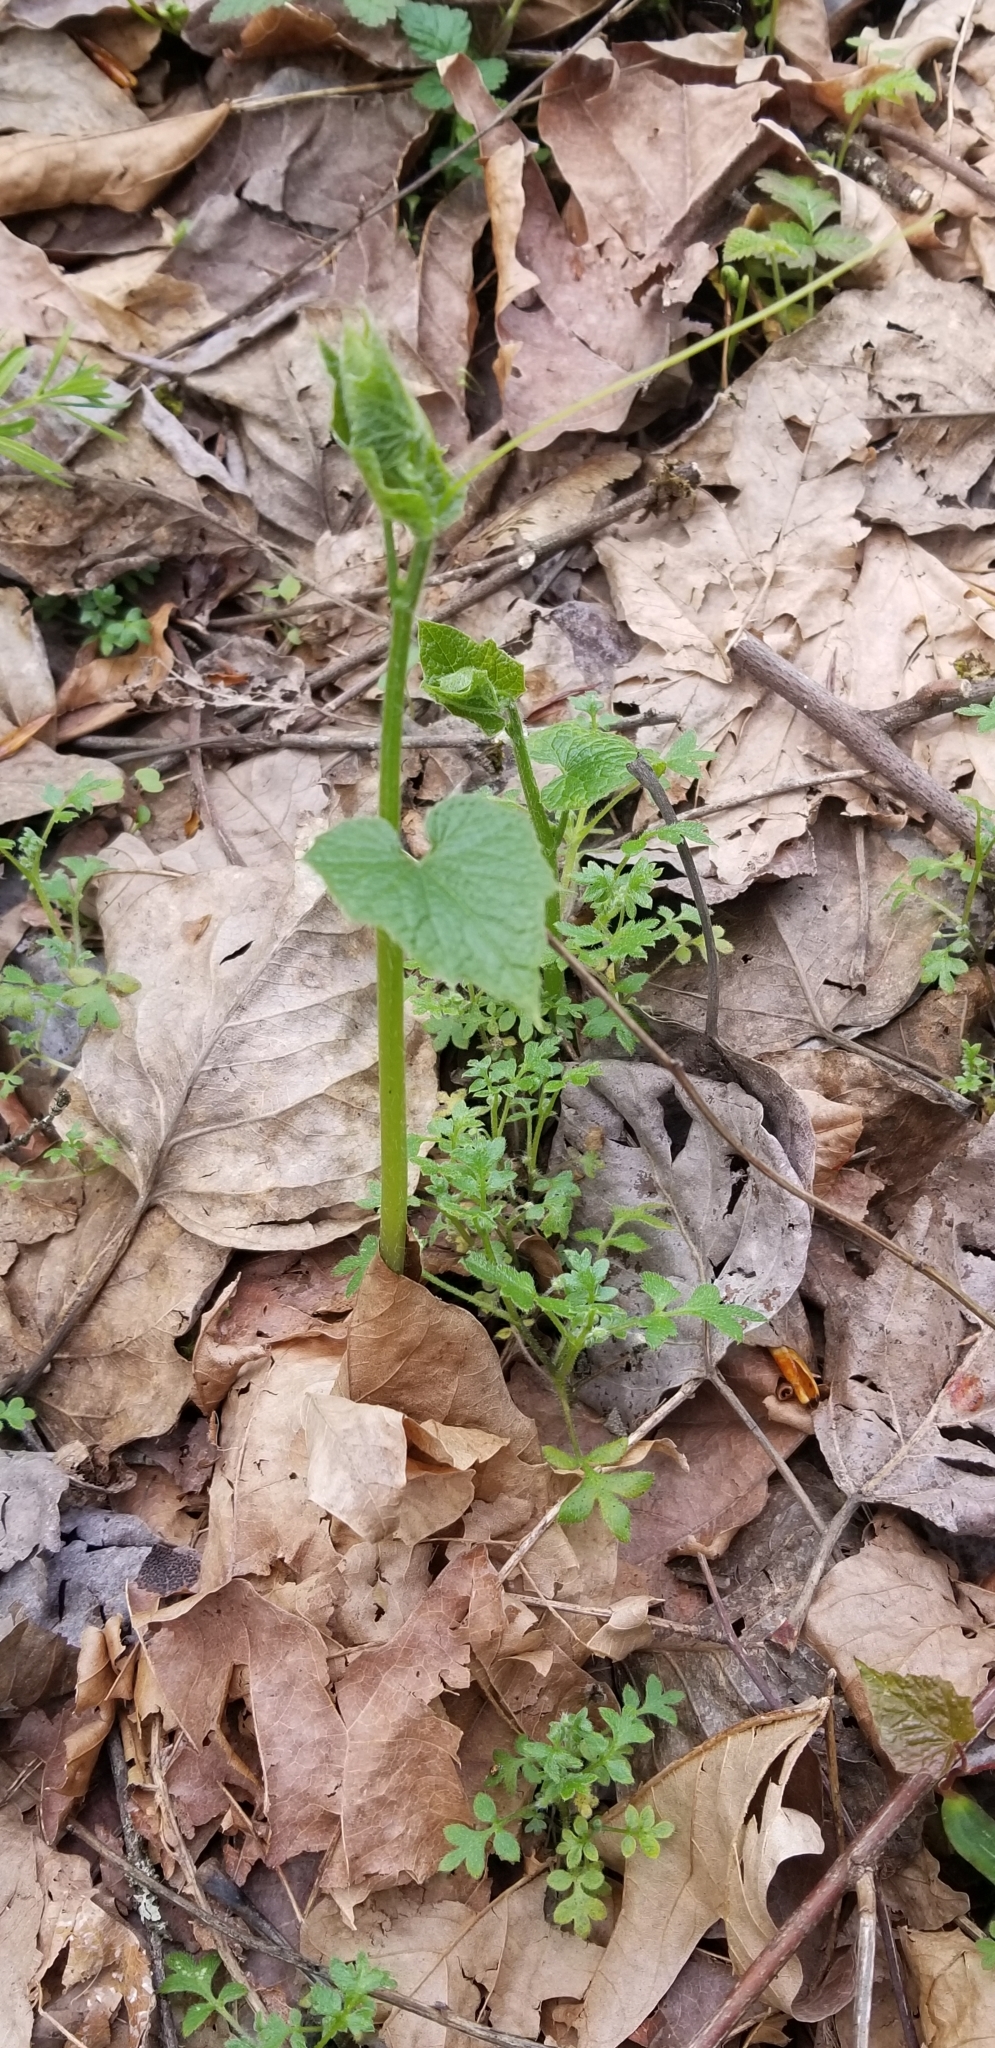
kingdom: Plantae
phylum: Tracheophyta
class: Magnoliopsida
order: Cucurbitales
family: Cucurbitaceae
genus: Marah
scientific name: Marah oregana
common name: Coastal manroot
